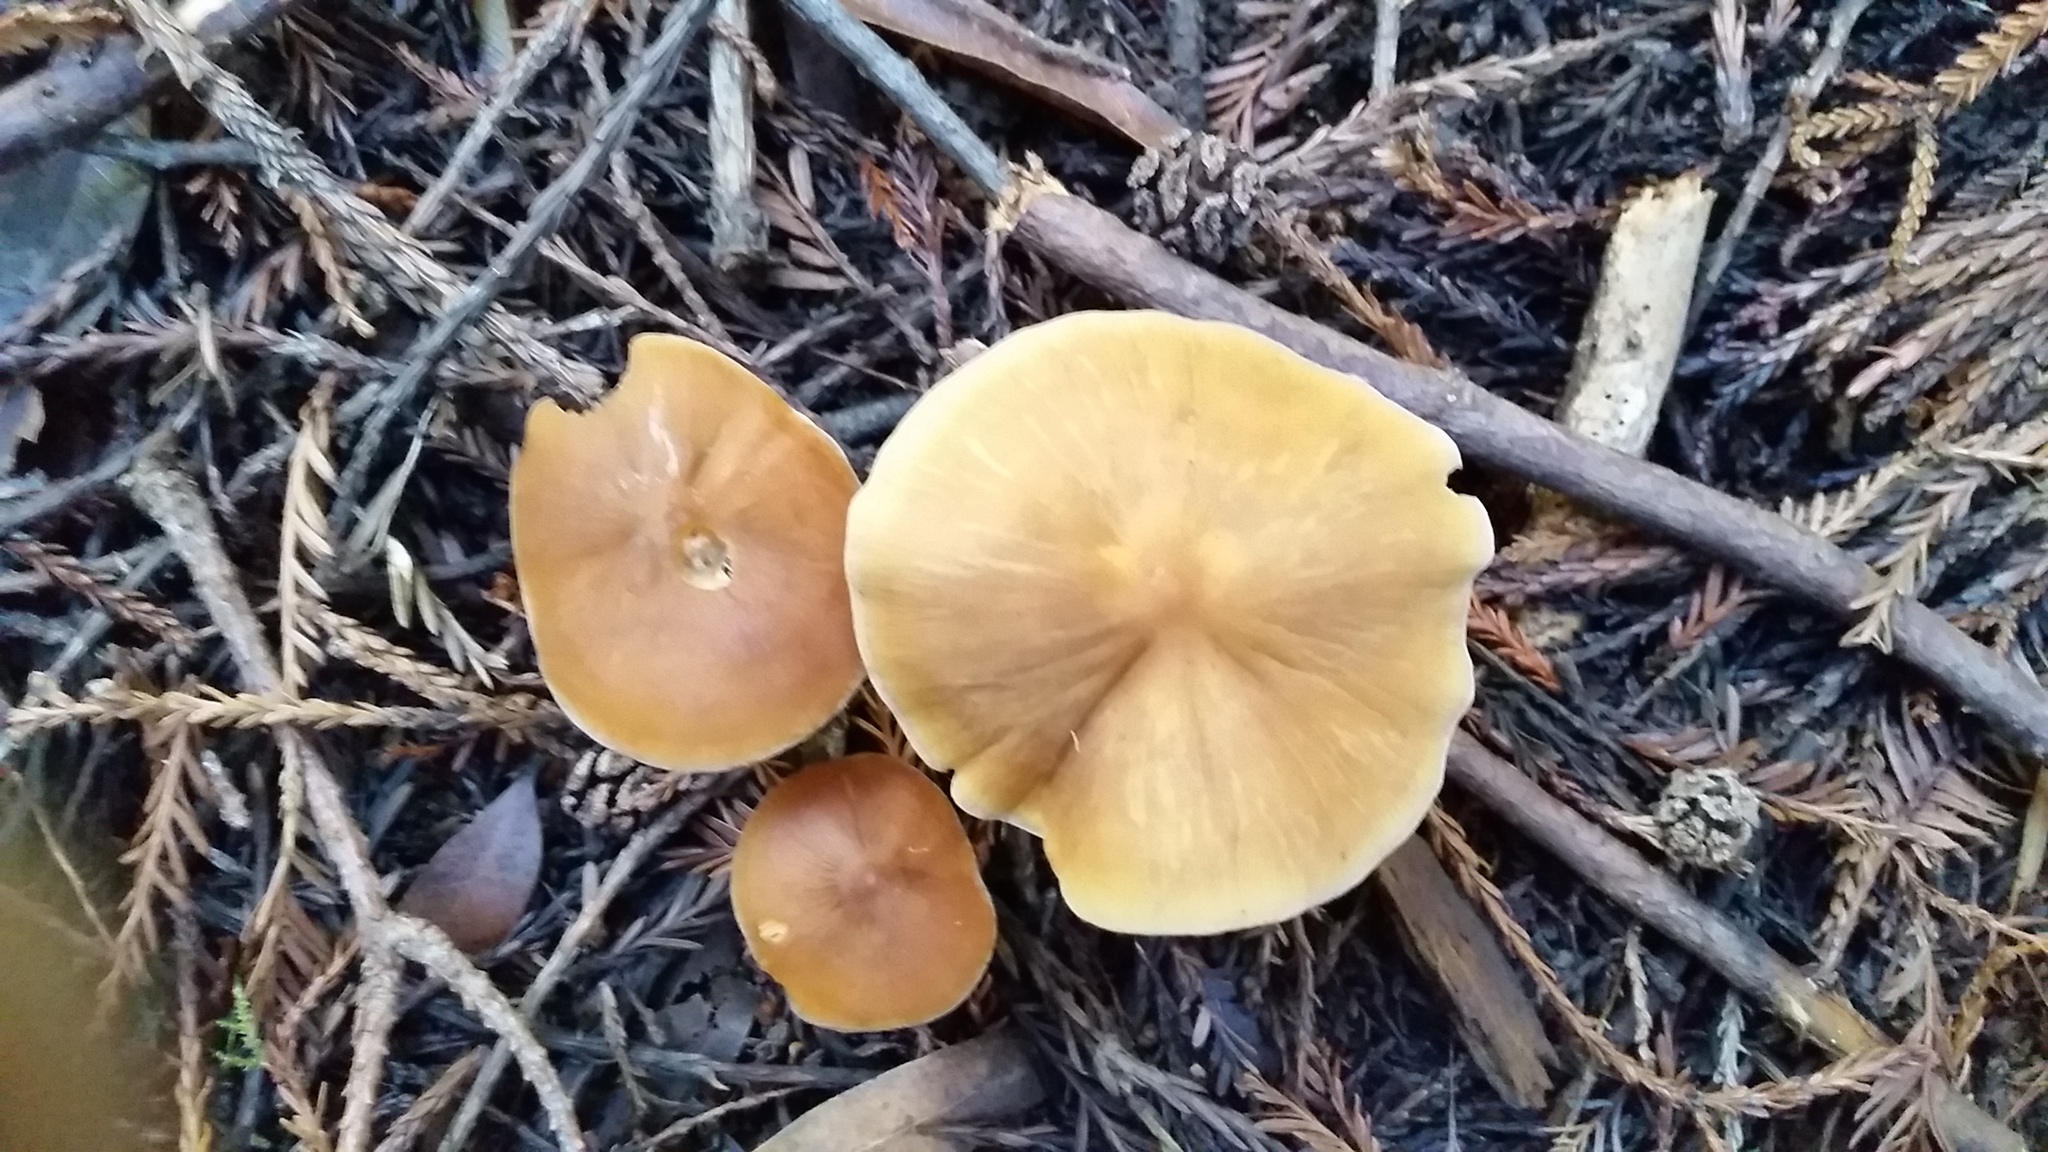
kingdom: Fungi
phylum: Basidiomycota
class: Agaricomycetes
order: Agaricales
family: Tricholomataceae
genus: Caulorhiza
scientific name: Caulorhiza umbonata
